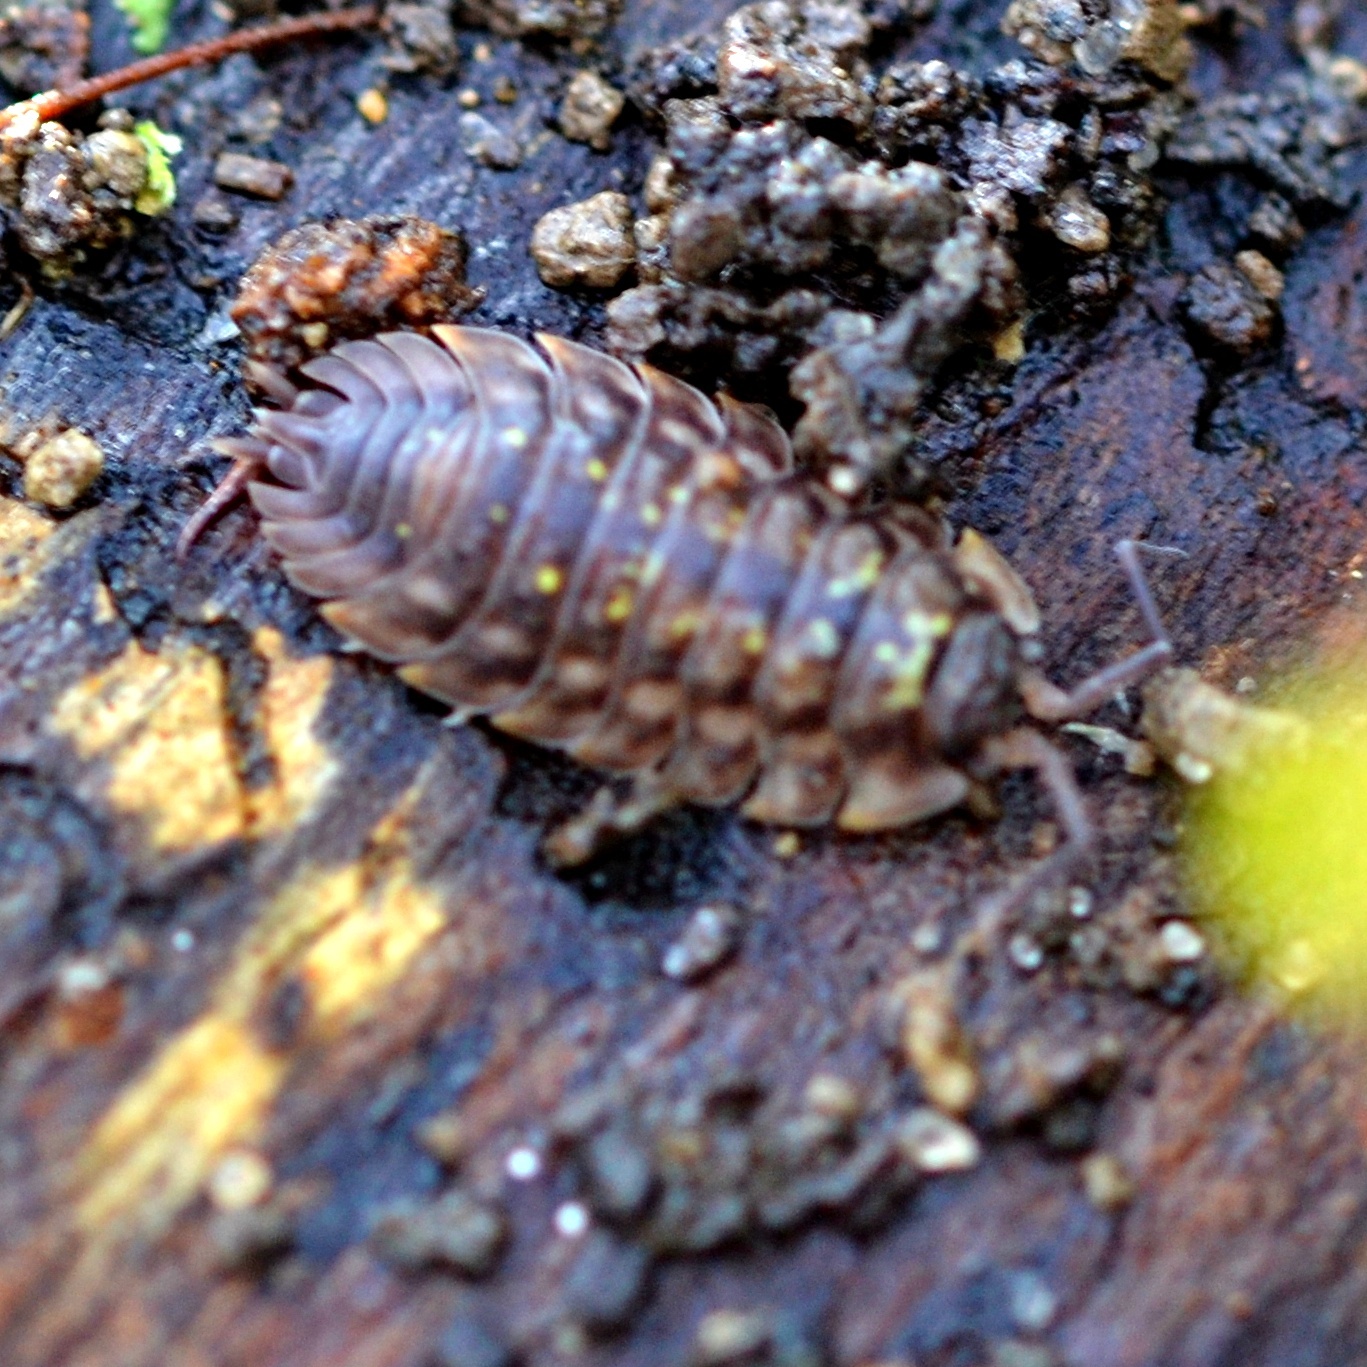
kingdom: Animalia
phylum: Arthropoda
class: Malacostraca
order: Isopoda
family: Oniscidae
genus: Oniscus
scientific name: Oniscus asellus
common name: Common shiny woodlouse
